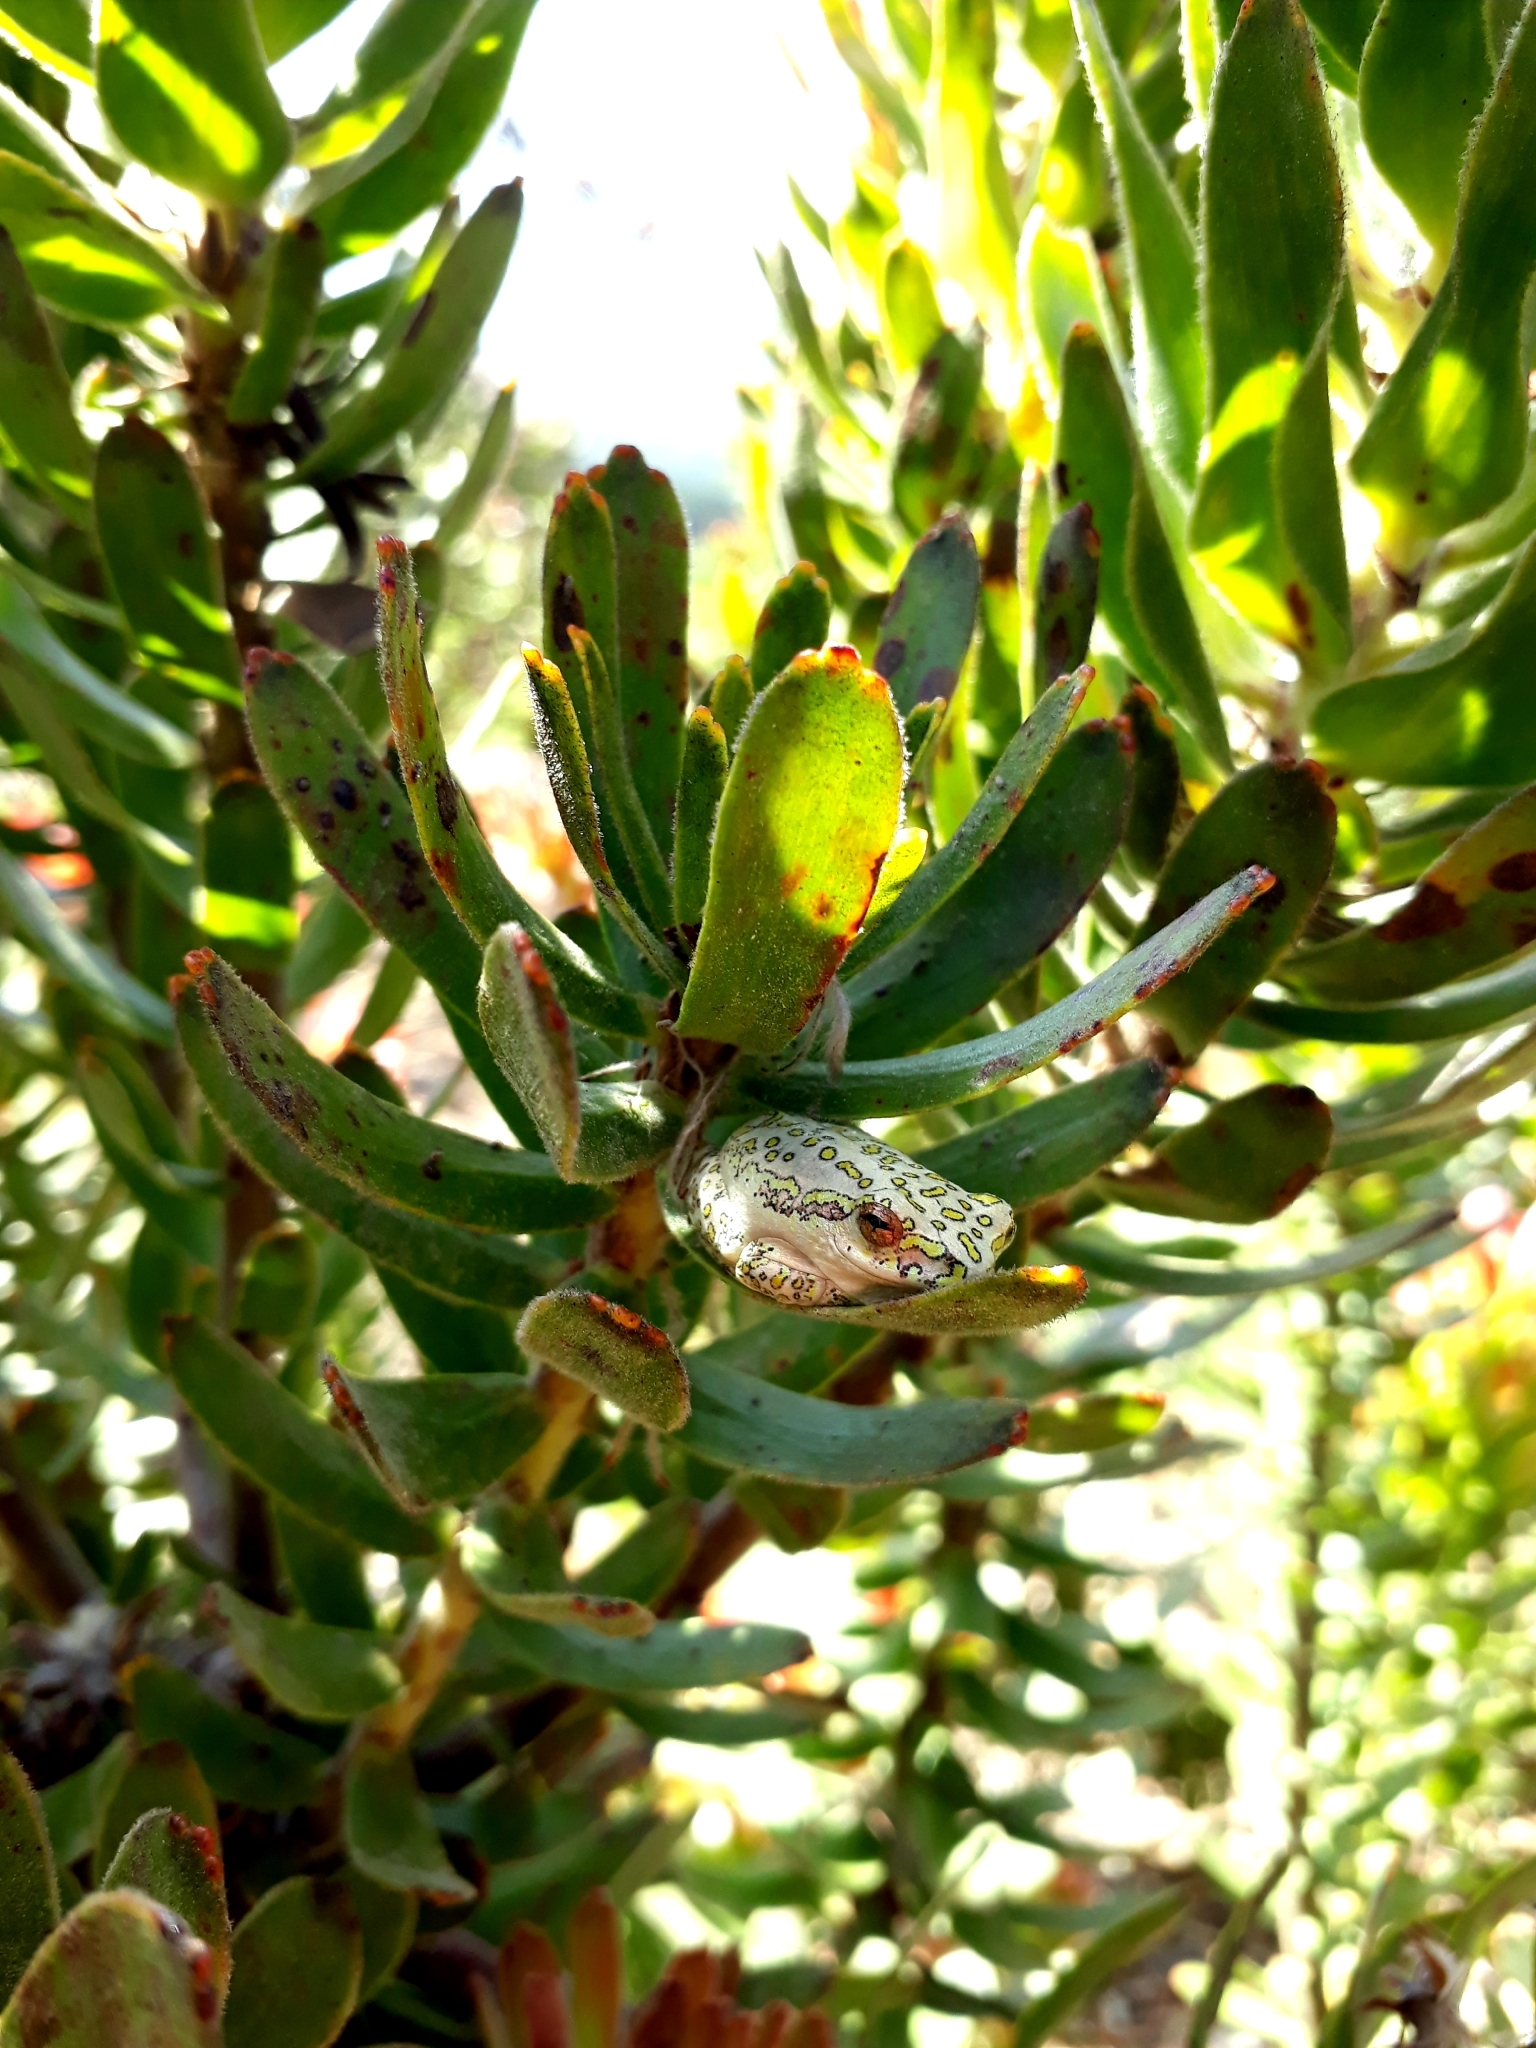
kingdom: Animalia
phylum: Chordata
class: Amphibia
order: Anura
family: Hyperoliidae
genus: Hyperolius
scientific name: Hyperolius marmoratus
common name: Painted reed frog
